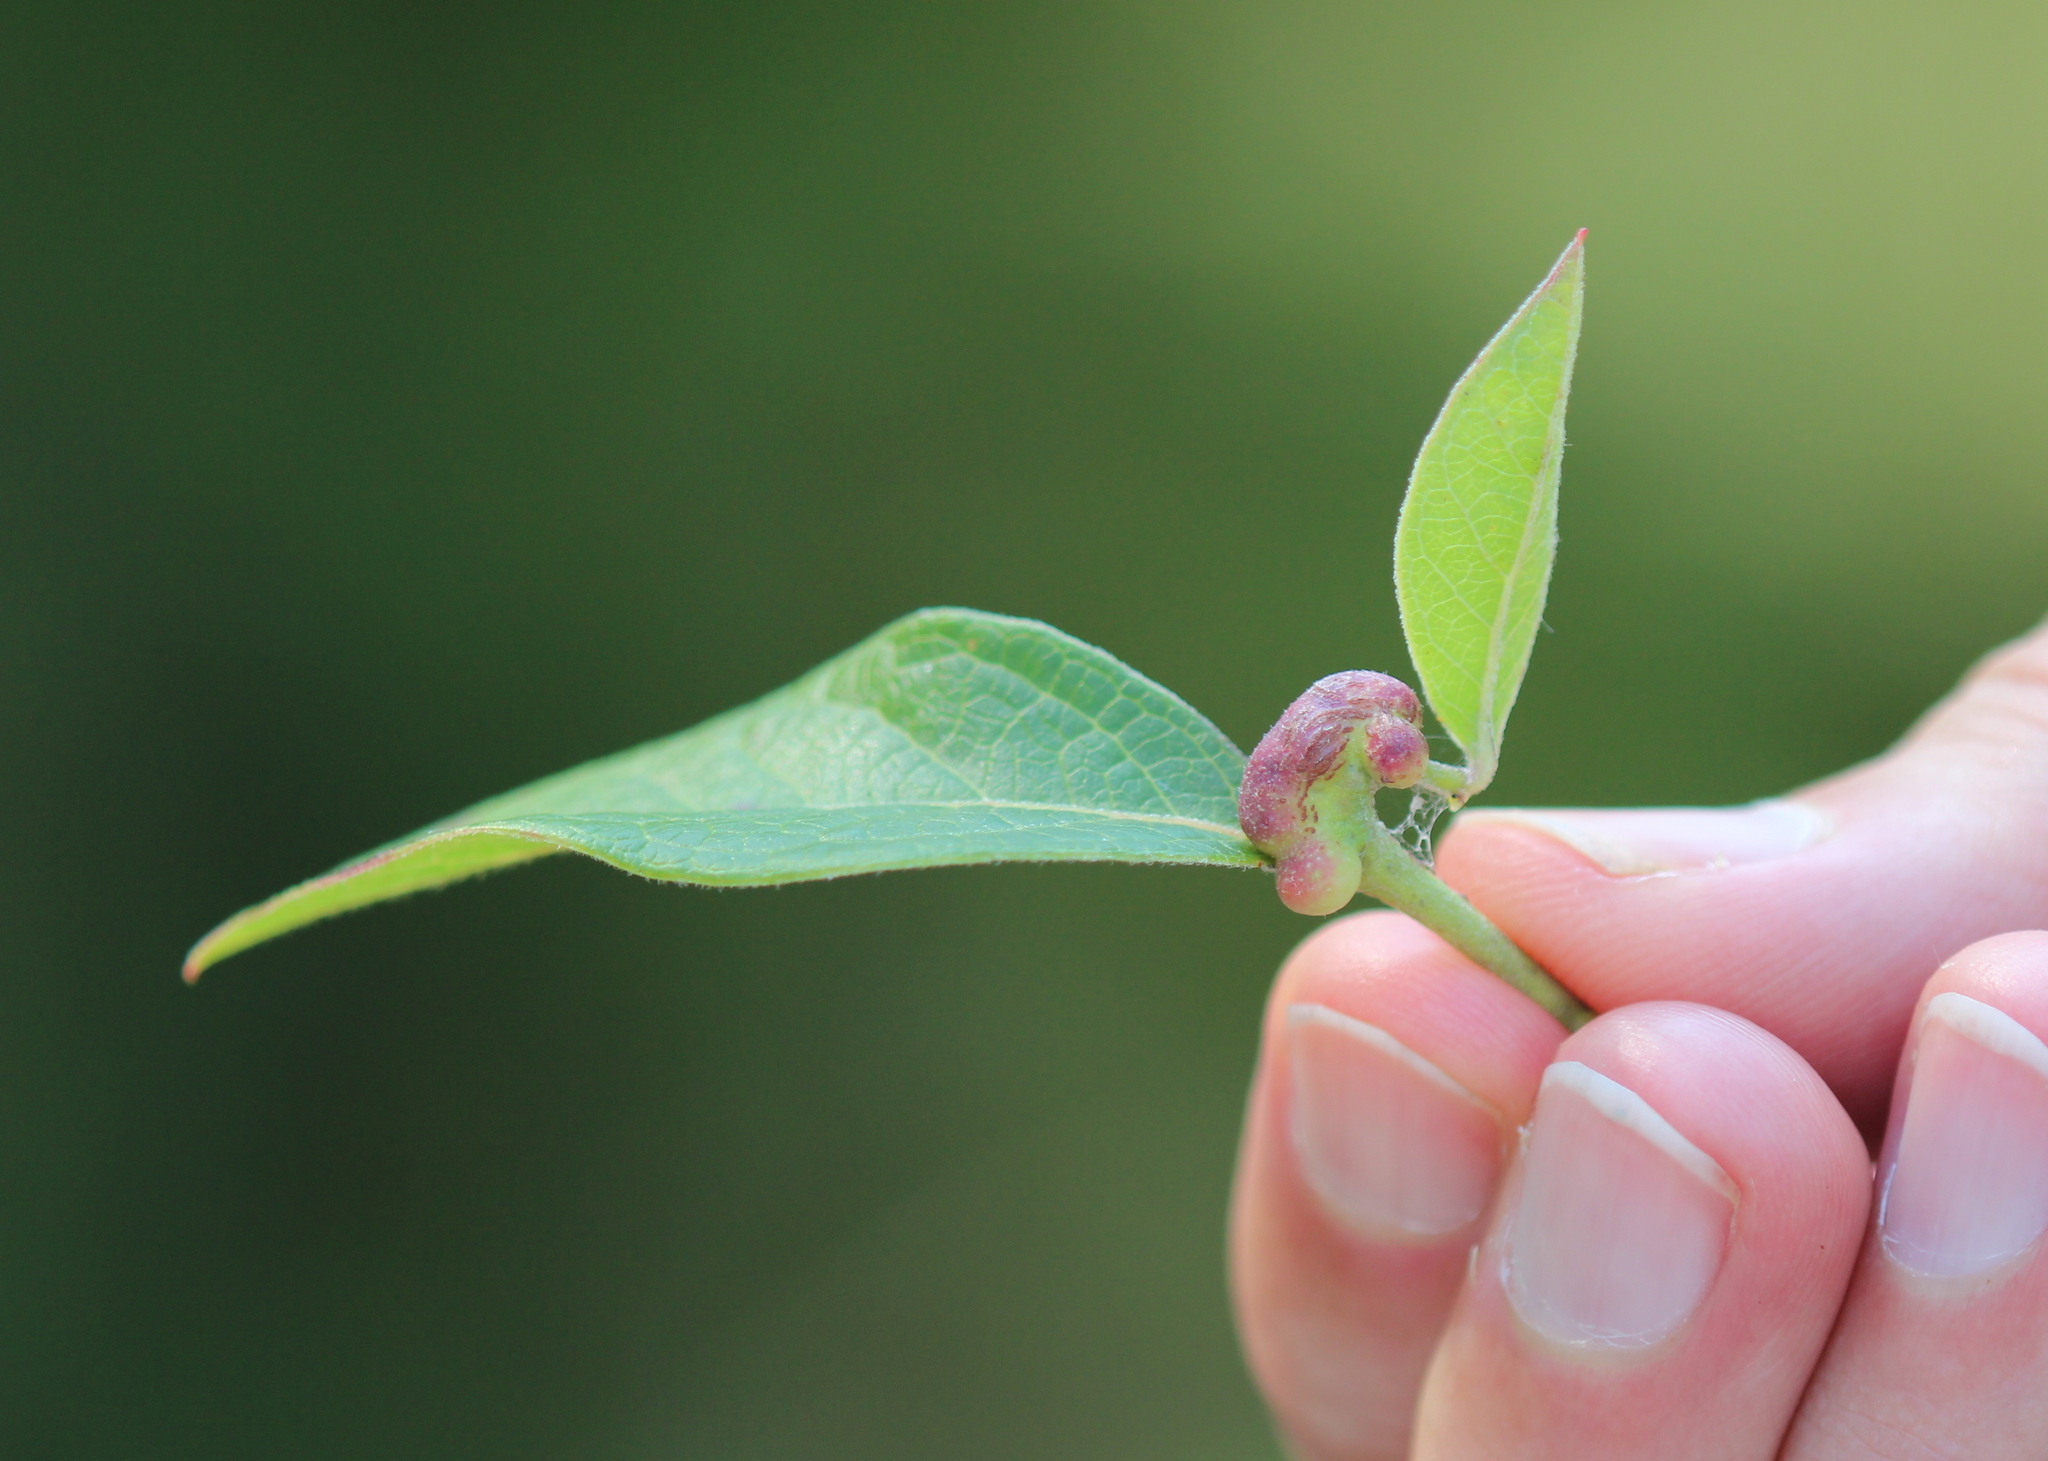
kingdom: Animalia
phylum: Arthropoda
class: Insecta
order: Hymenoptera
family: Pteromalidae
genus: Hemadas
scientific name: Hemadas nubilipennis
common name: Blueberry stem gall wasp
